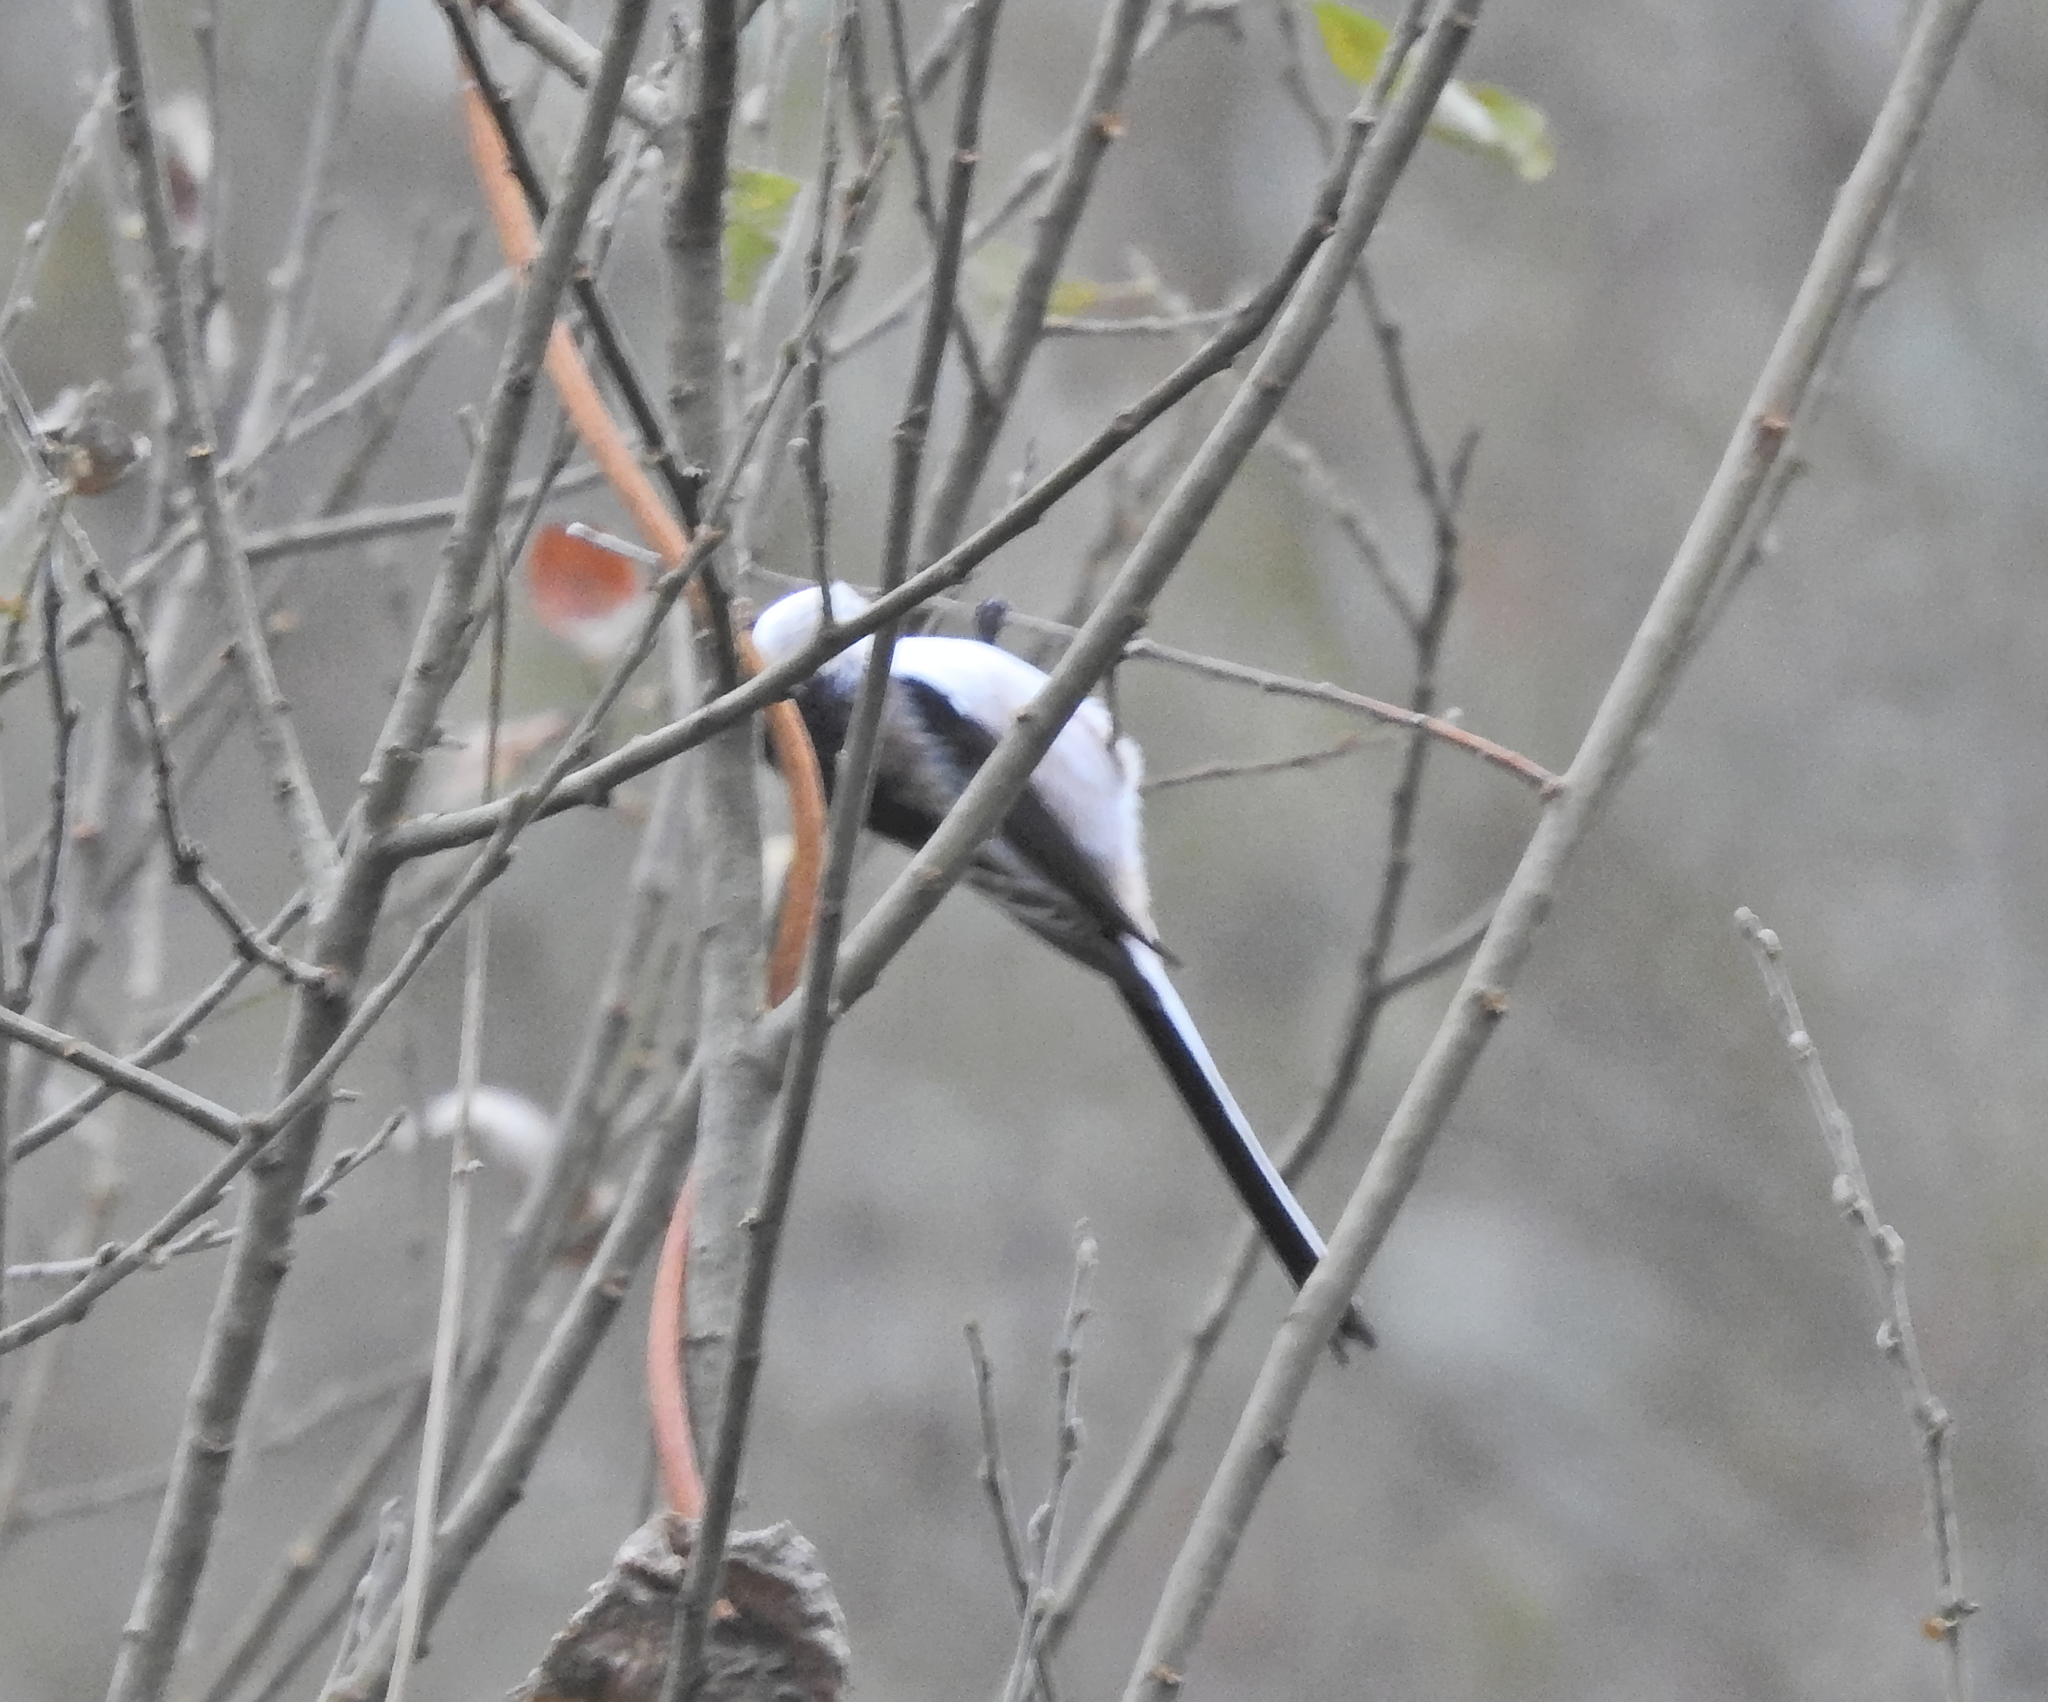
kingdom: Animalia
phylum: Chordata
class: Aves
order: Passeriformes
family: Aegithalidae
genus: Aegithalos
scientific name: Aegithalos caudatus
